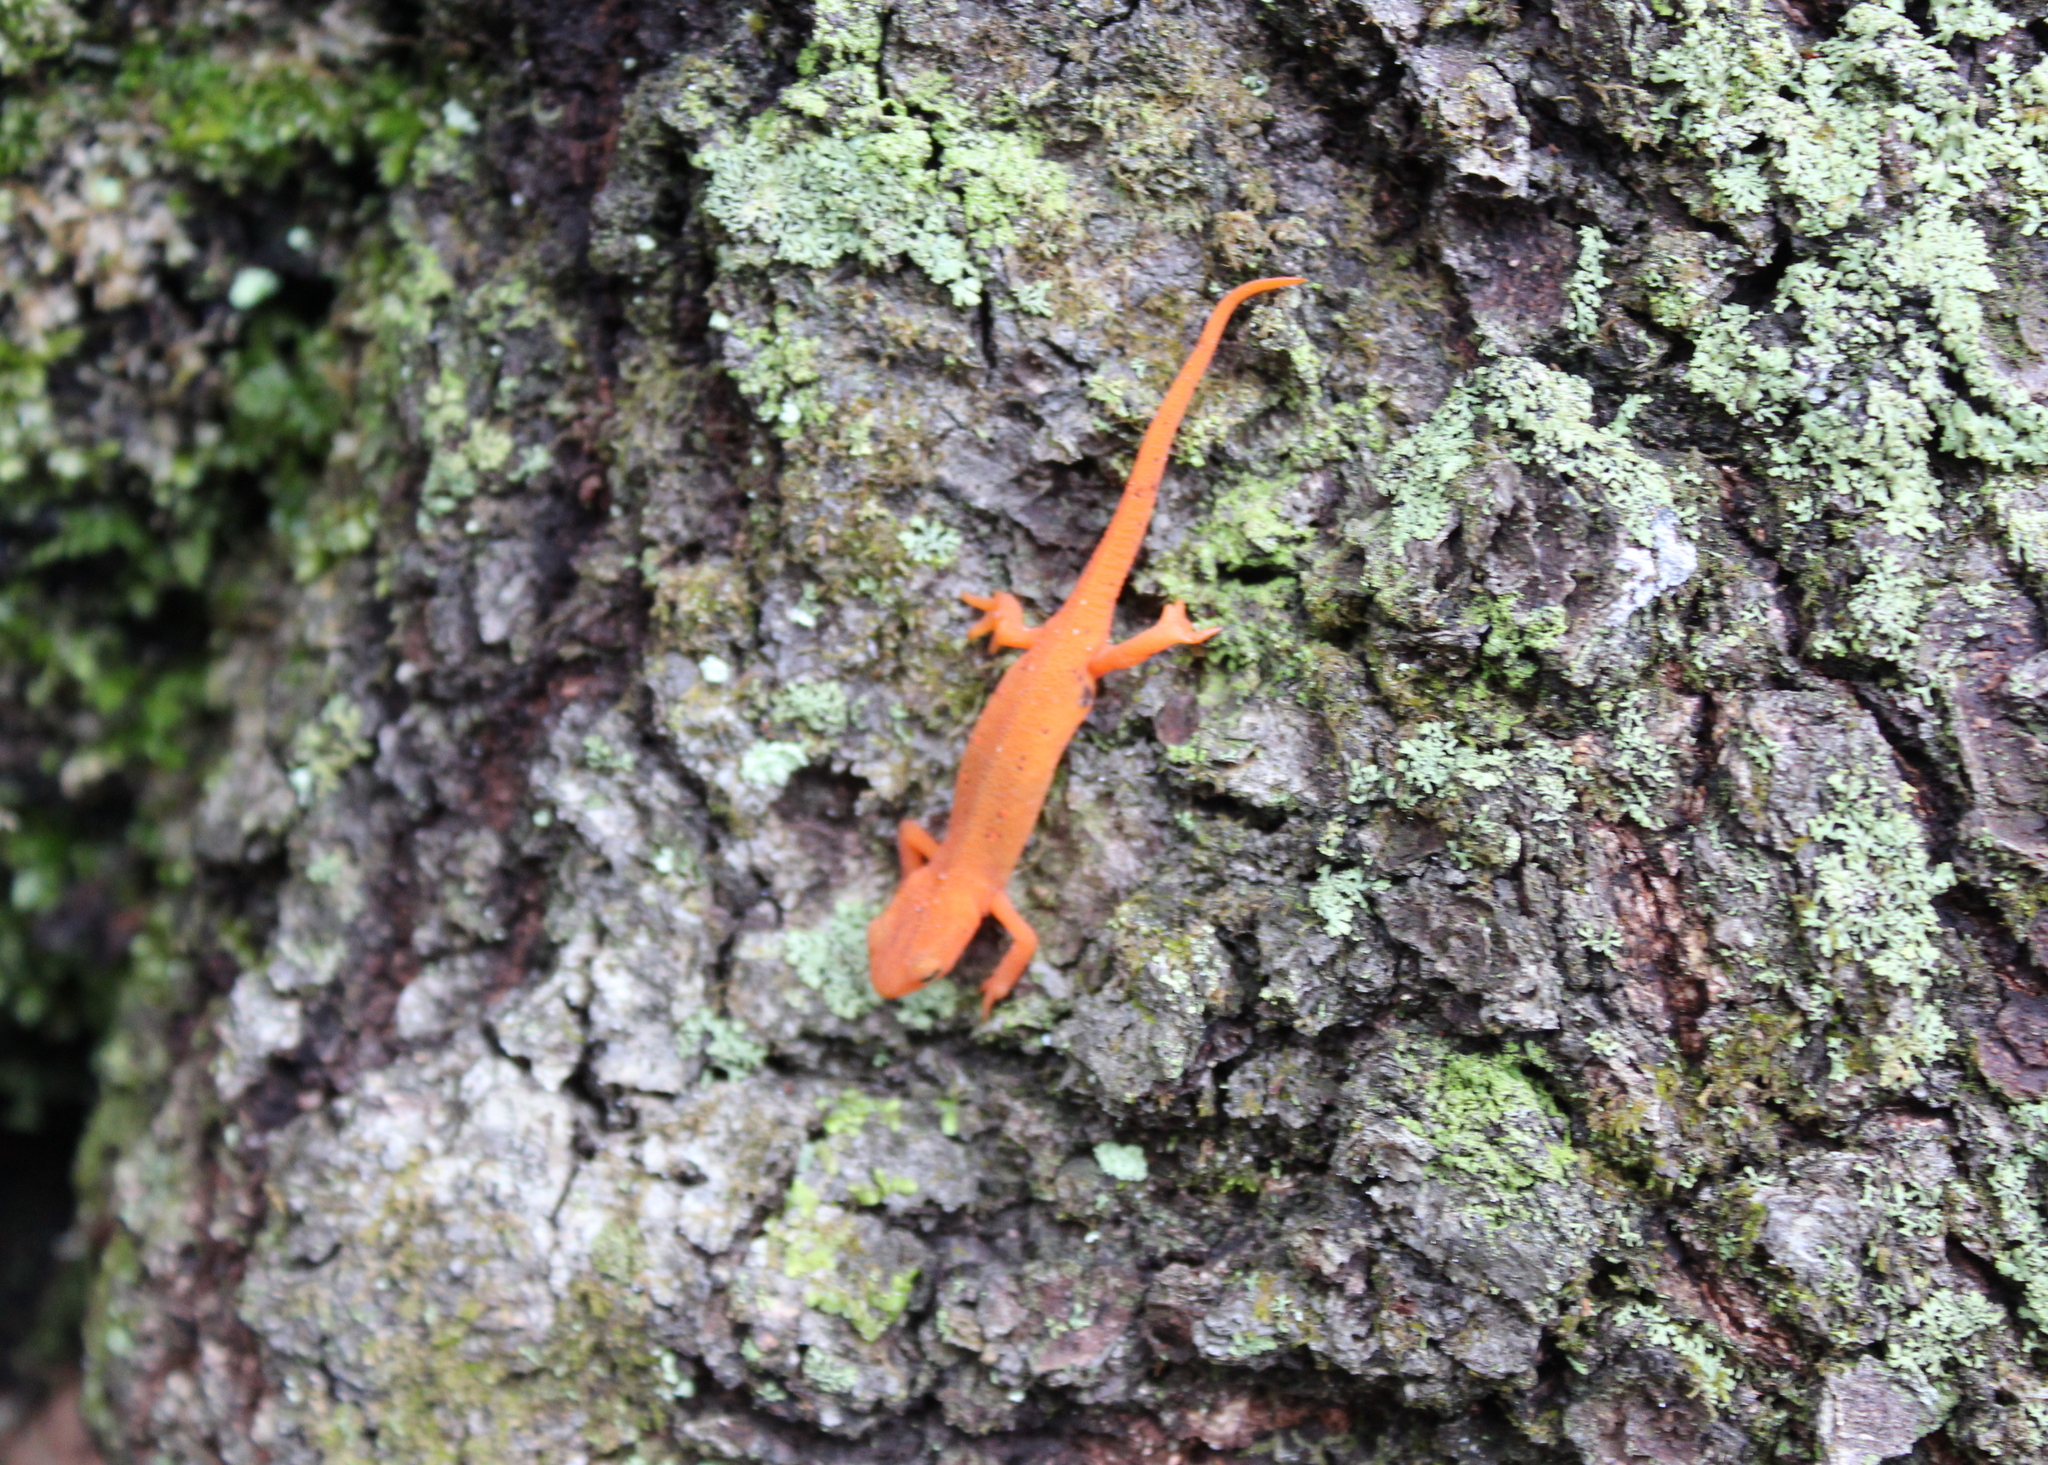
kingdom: Animalia
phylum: Chordata
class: Amphibia
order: Caudata
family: Salamandridae
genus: Notophthalmus
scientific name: Notophthalmus viridescens
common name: Eastern newt
